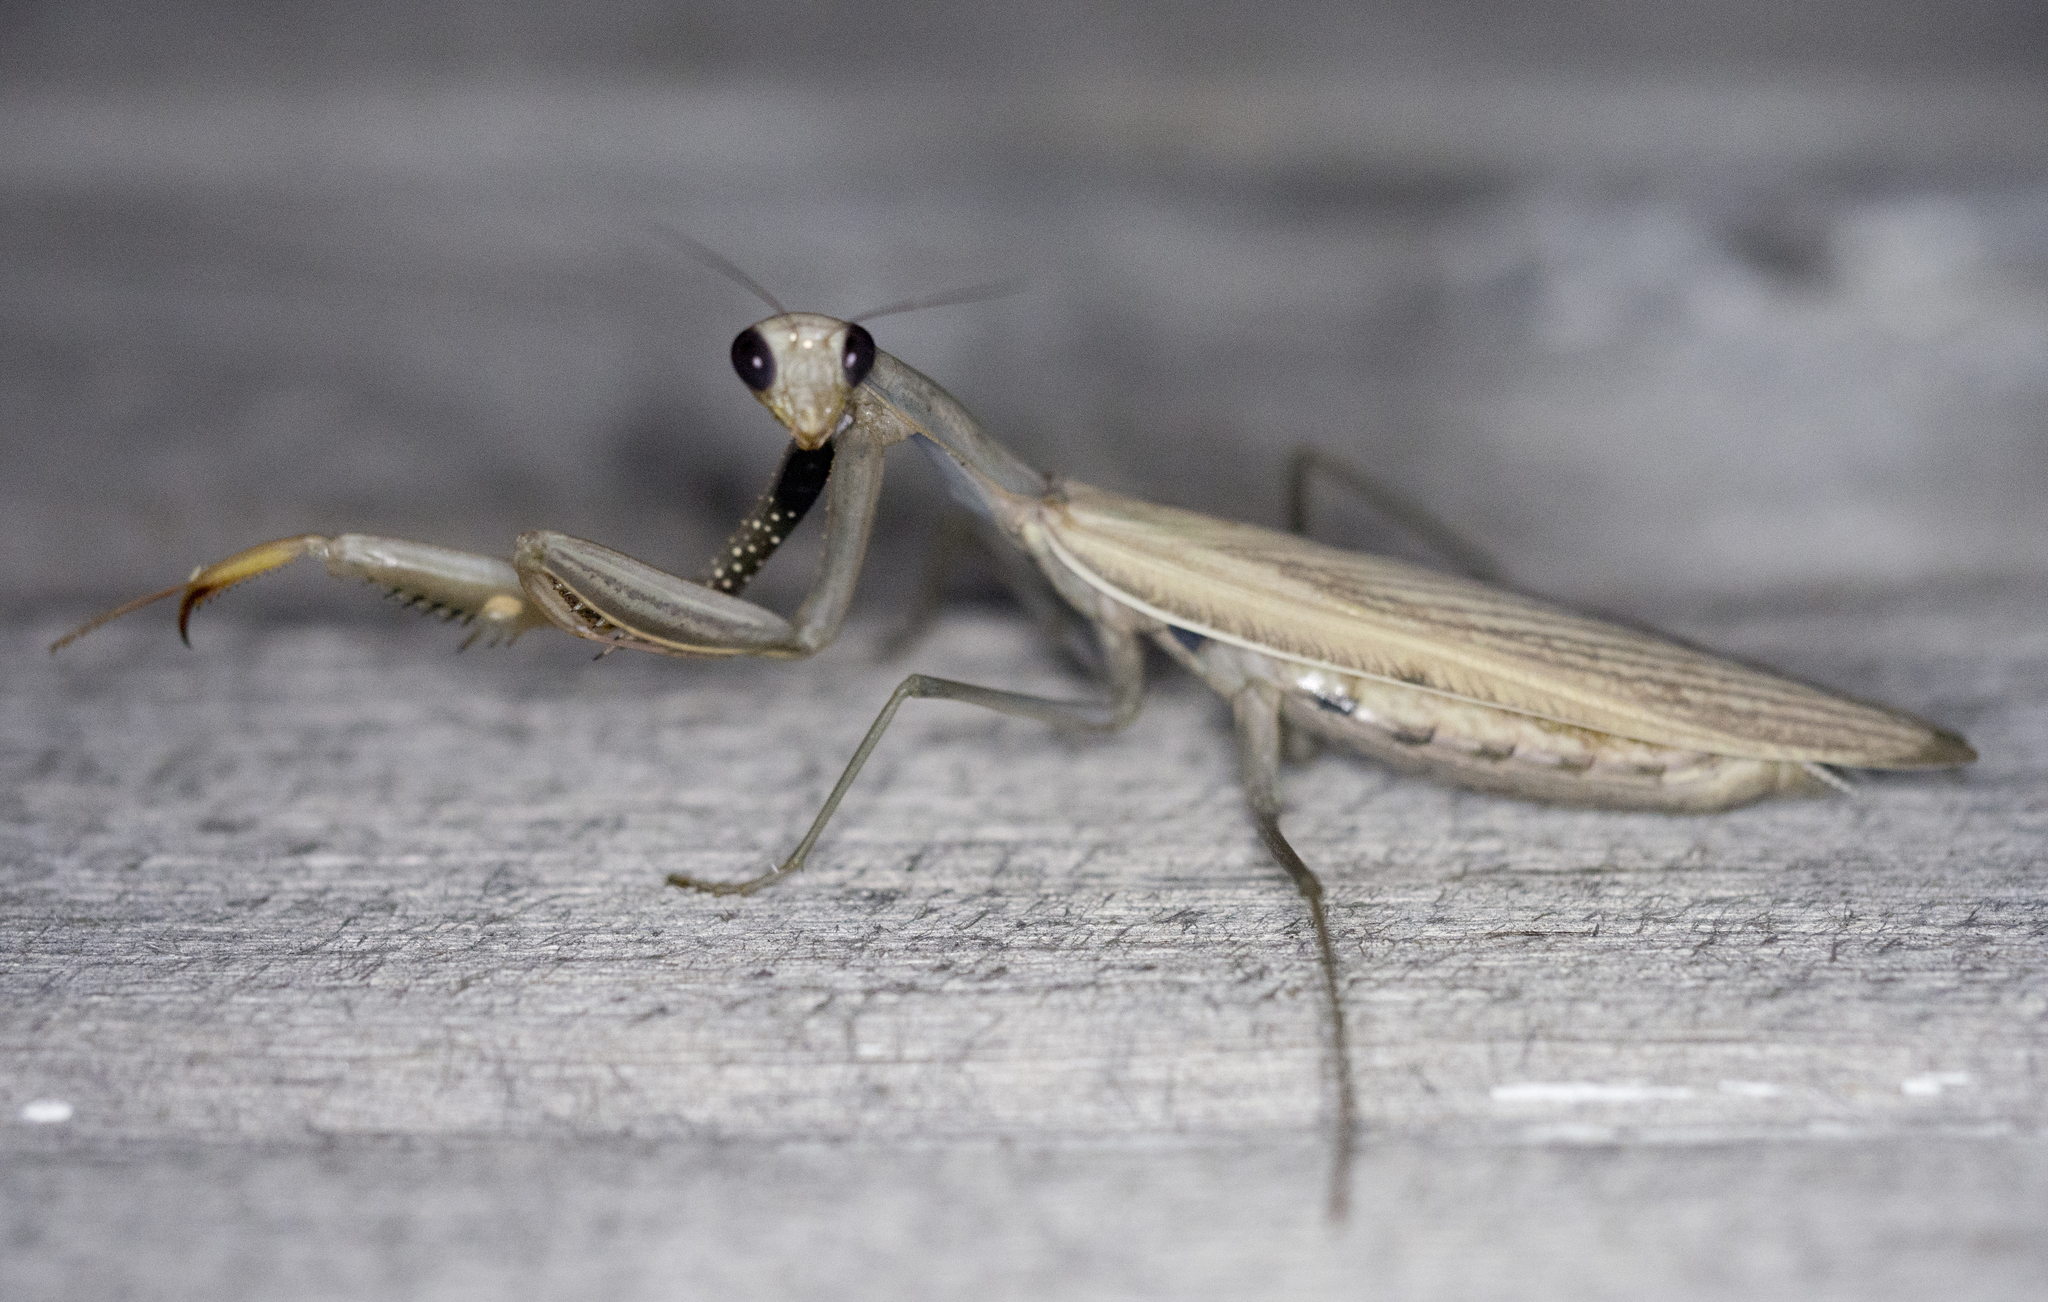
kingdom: Animalia
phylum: Arthropoda
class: Insecta
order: Mantodea
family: Mantidae
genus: Mantis
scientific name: Mantis religiosa
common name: Praying mantis
